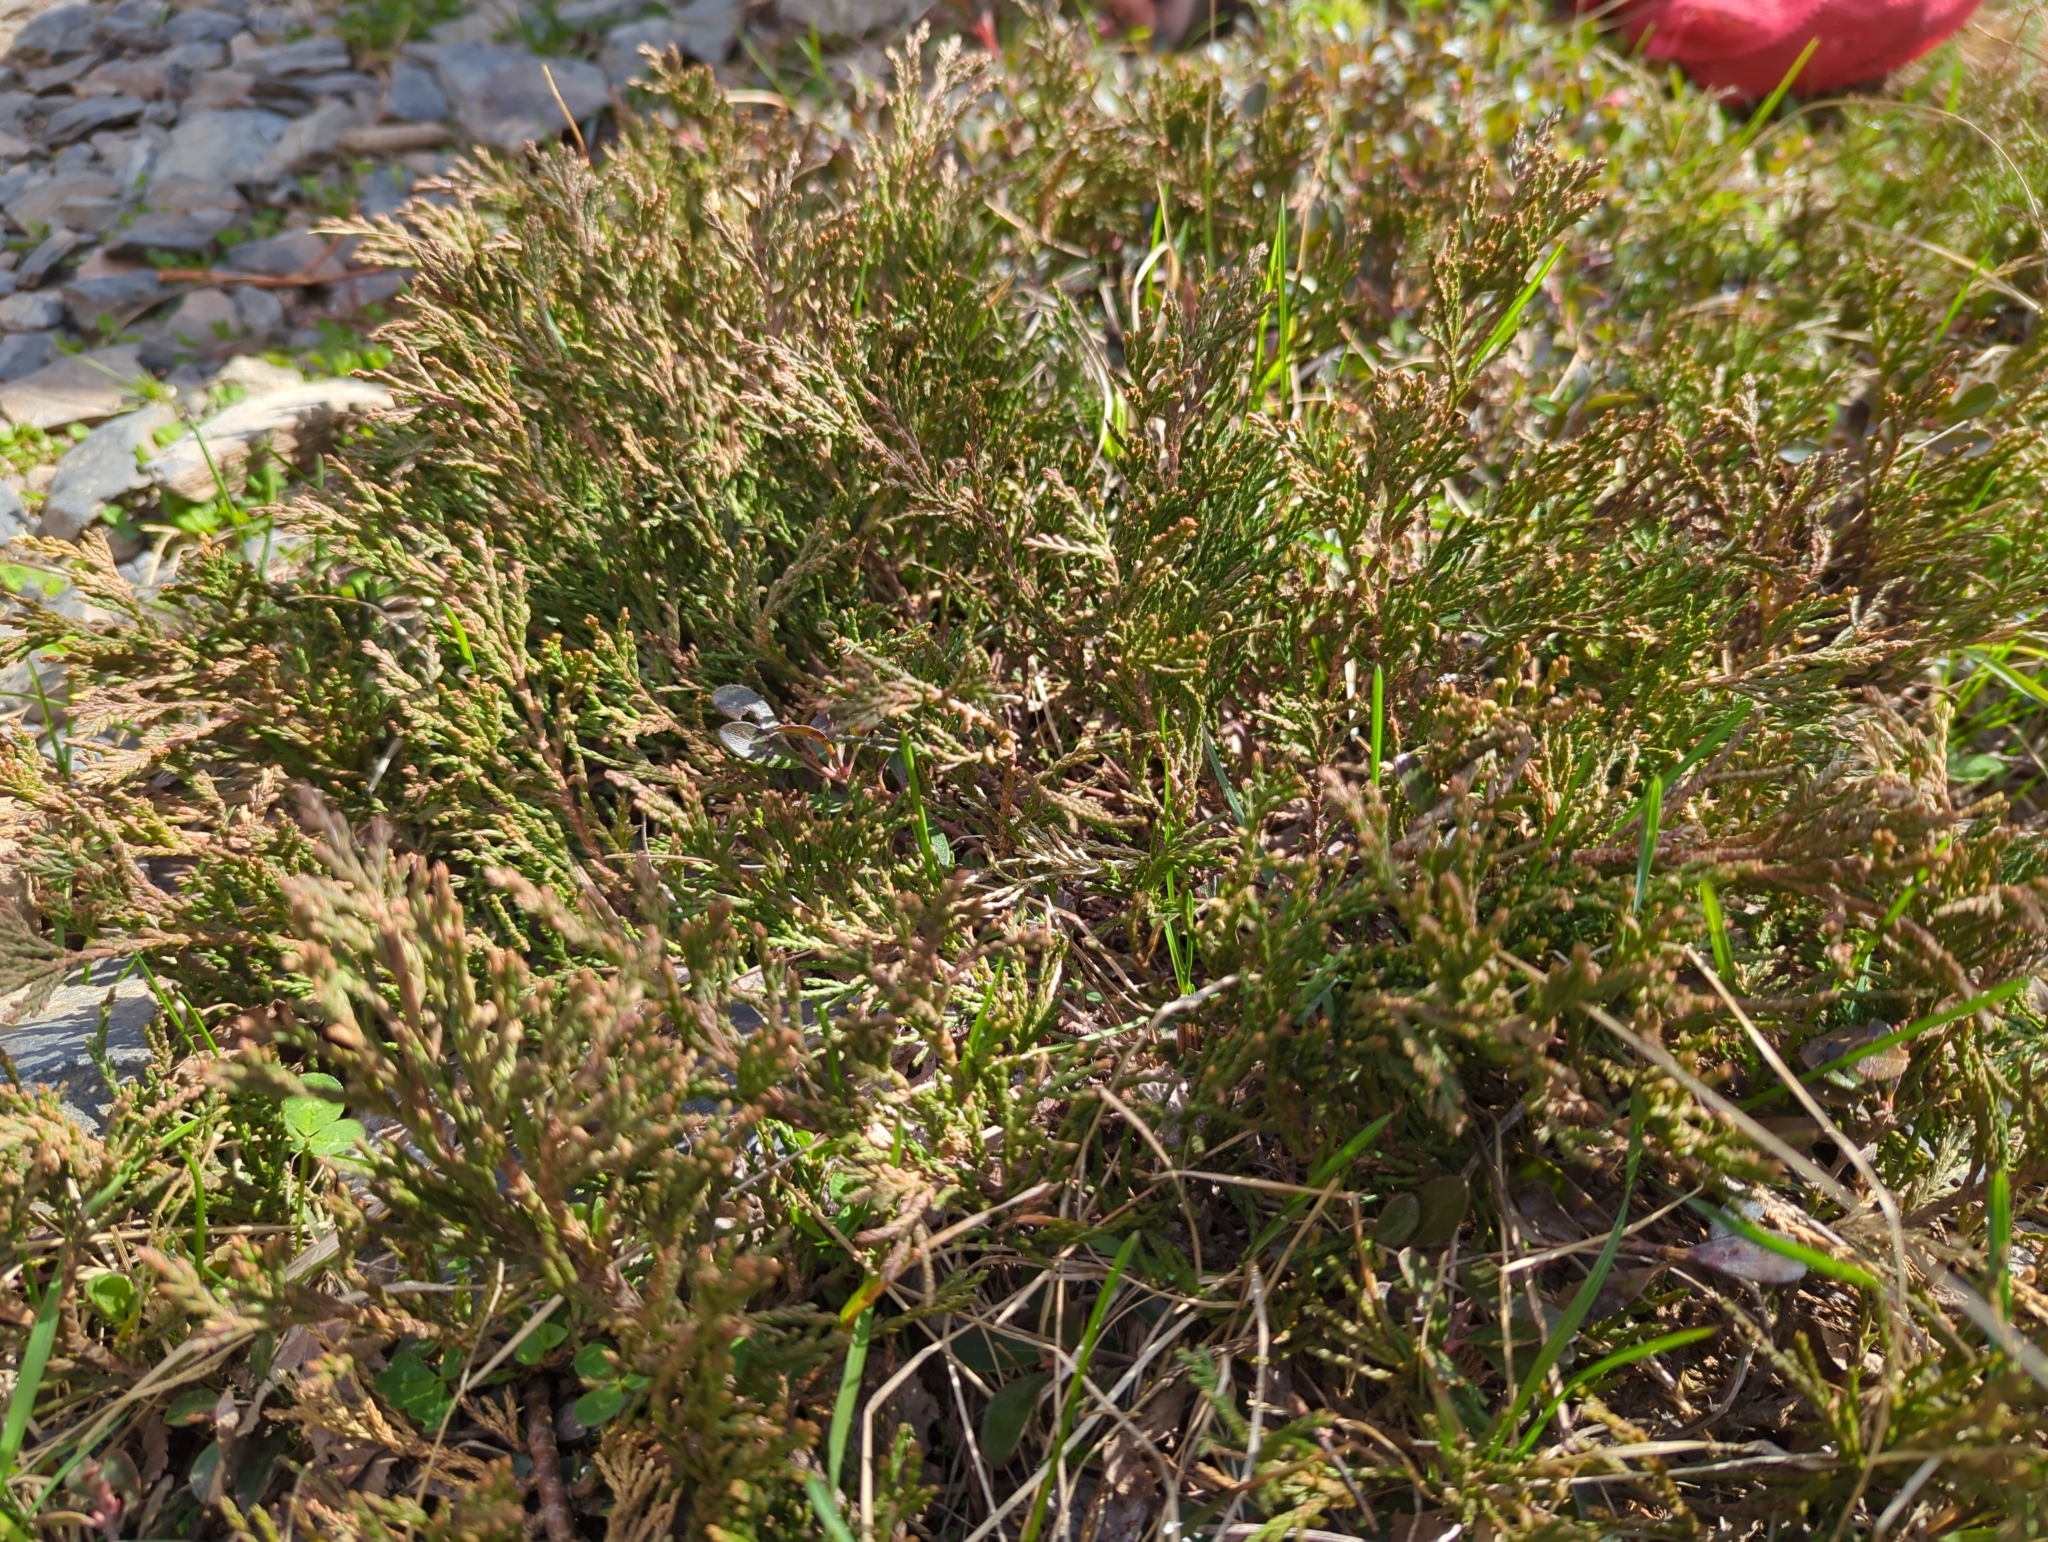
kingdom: Plantae
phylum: Tracheophyta
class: Pinopsida
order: Pinales
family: Cupressaceae
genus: Juniperus
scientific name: Juniperus horizontalis
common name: Creeping juniper
